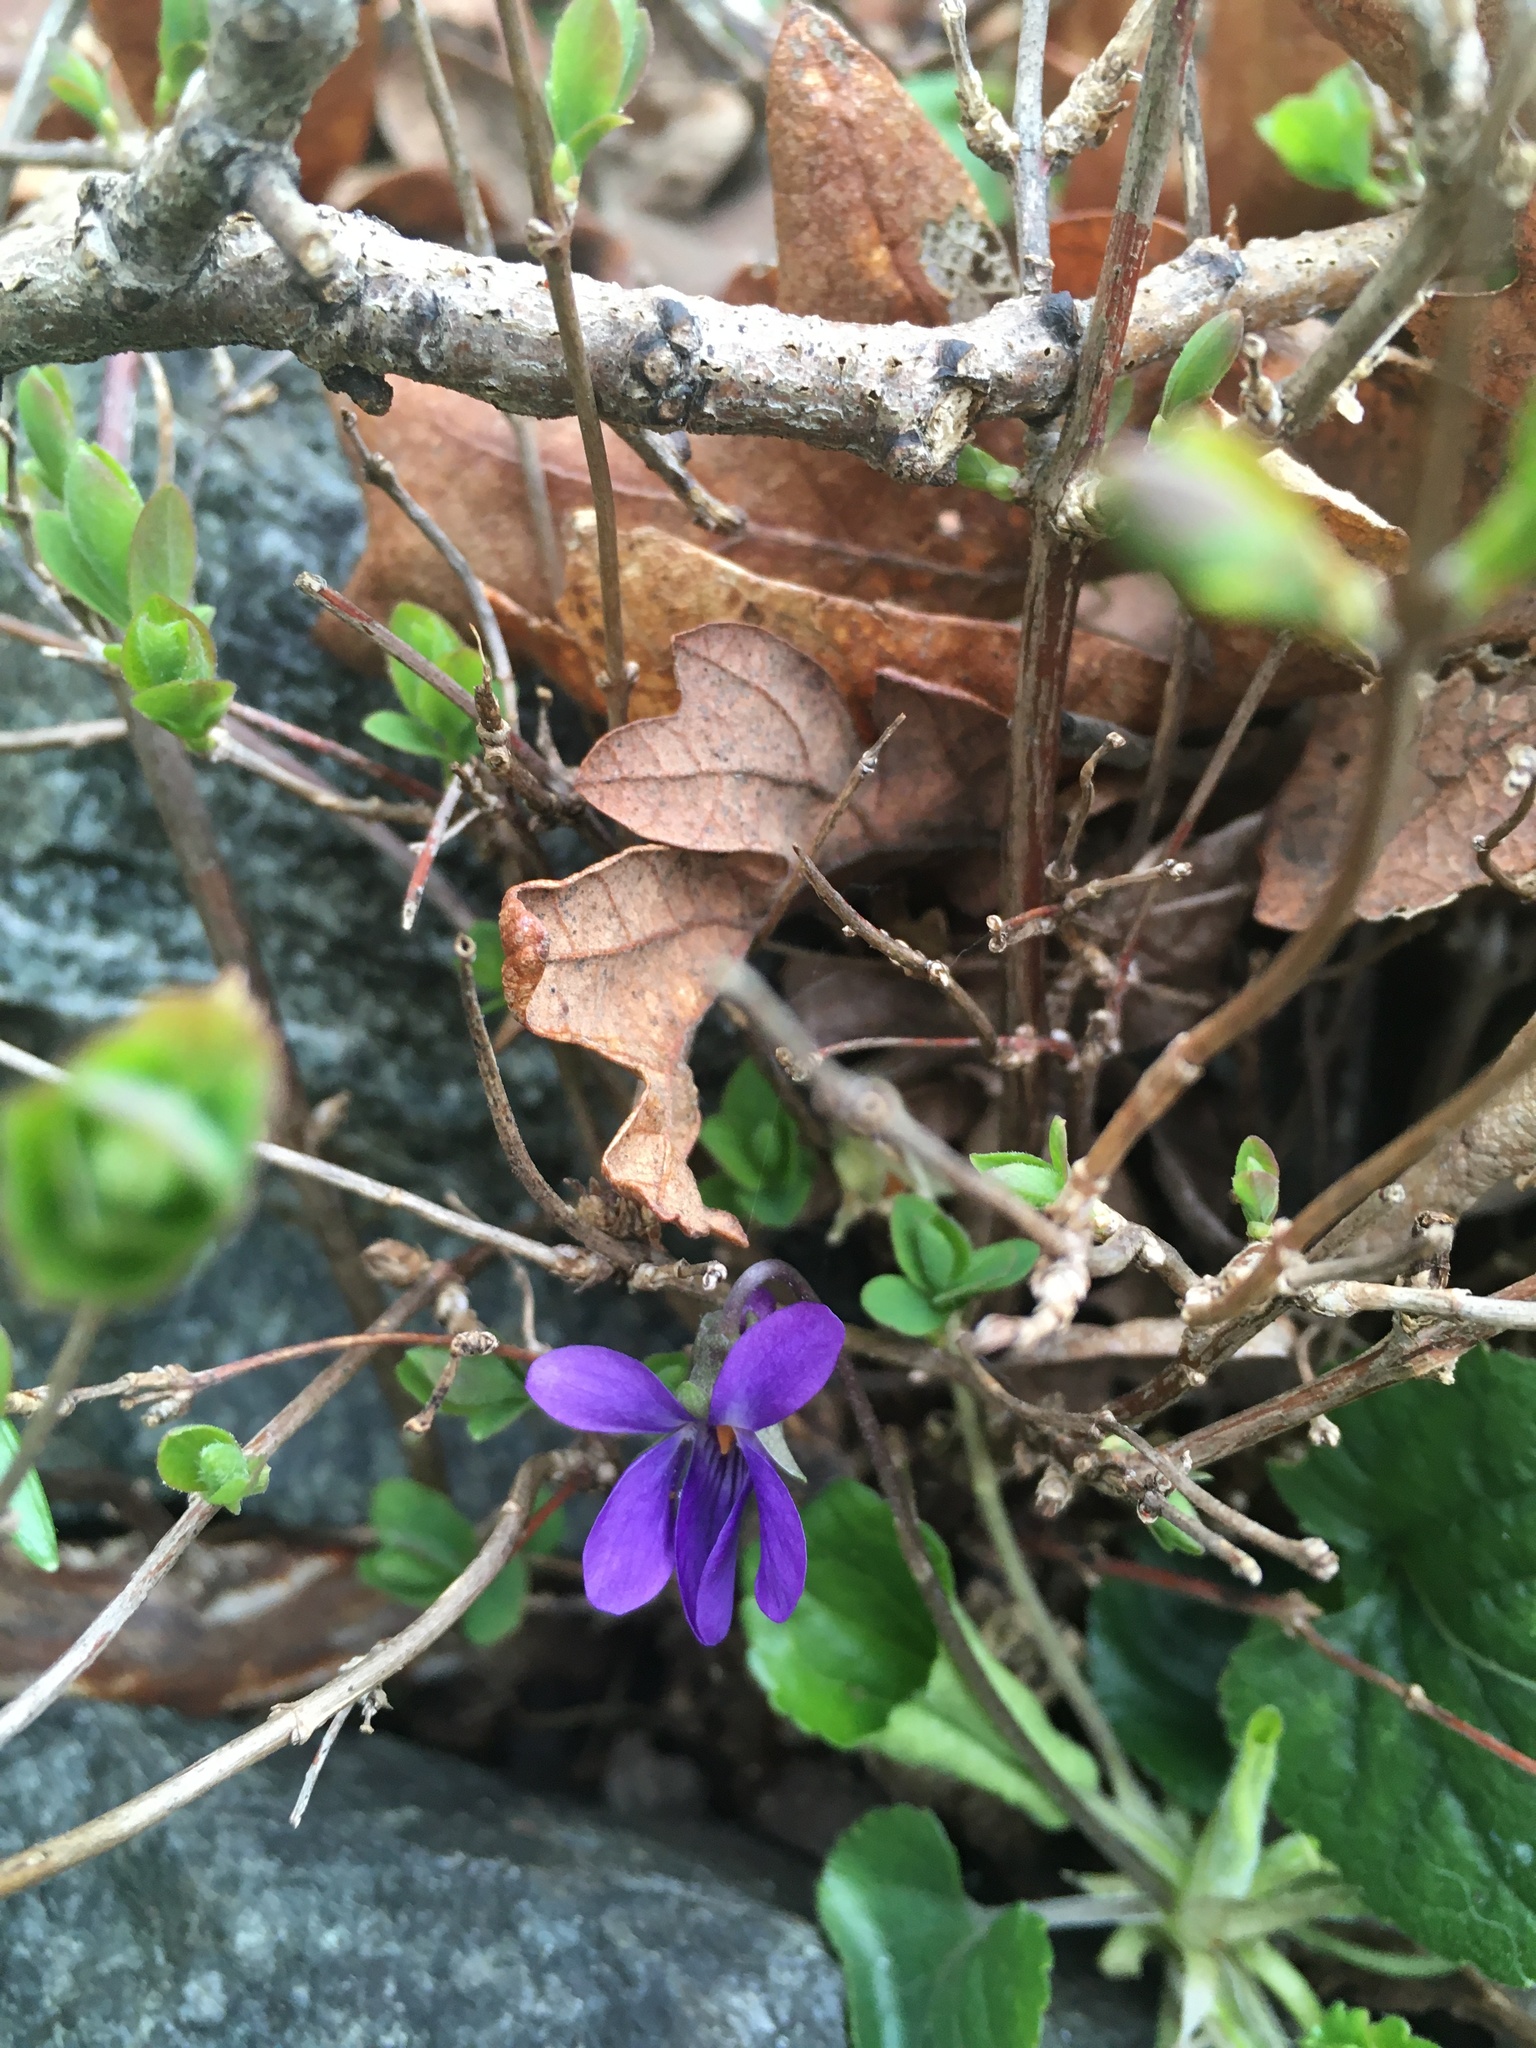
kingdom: Plantae
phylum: Tracheophyta
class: Magnoliopsida
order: Malpighiales
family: Violaceae
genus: Viola
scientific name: Viola odorata
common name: Sweet violet
